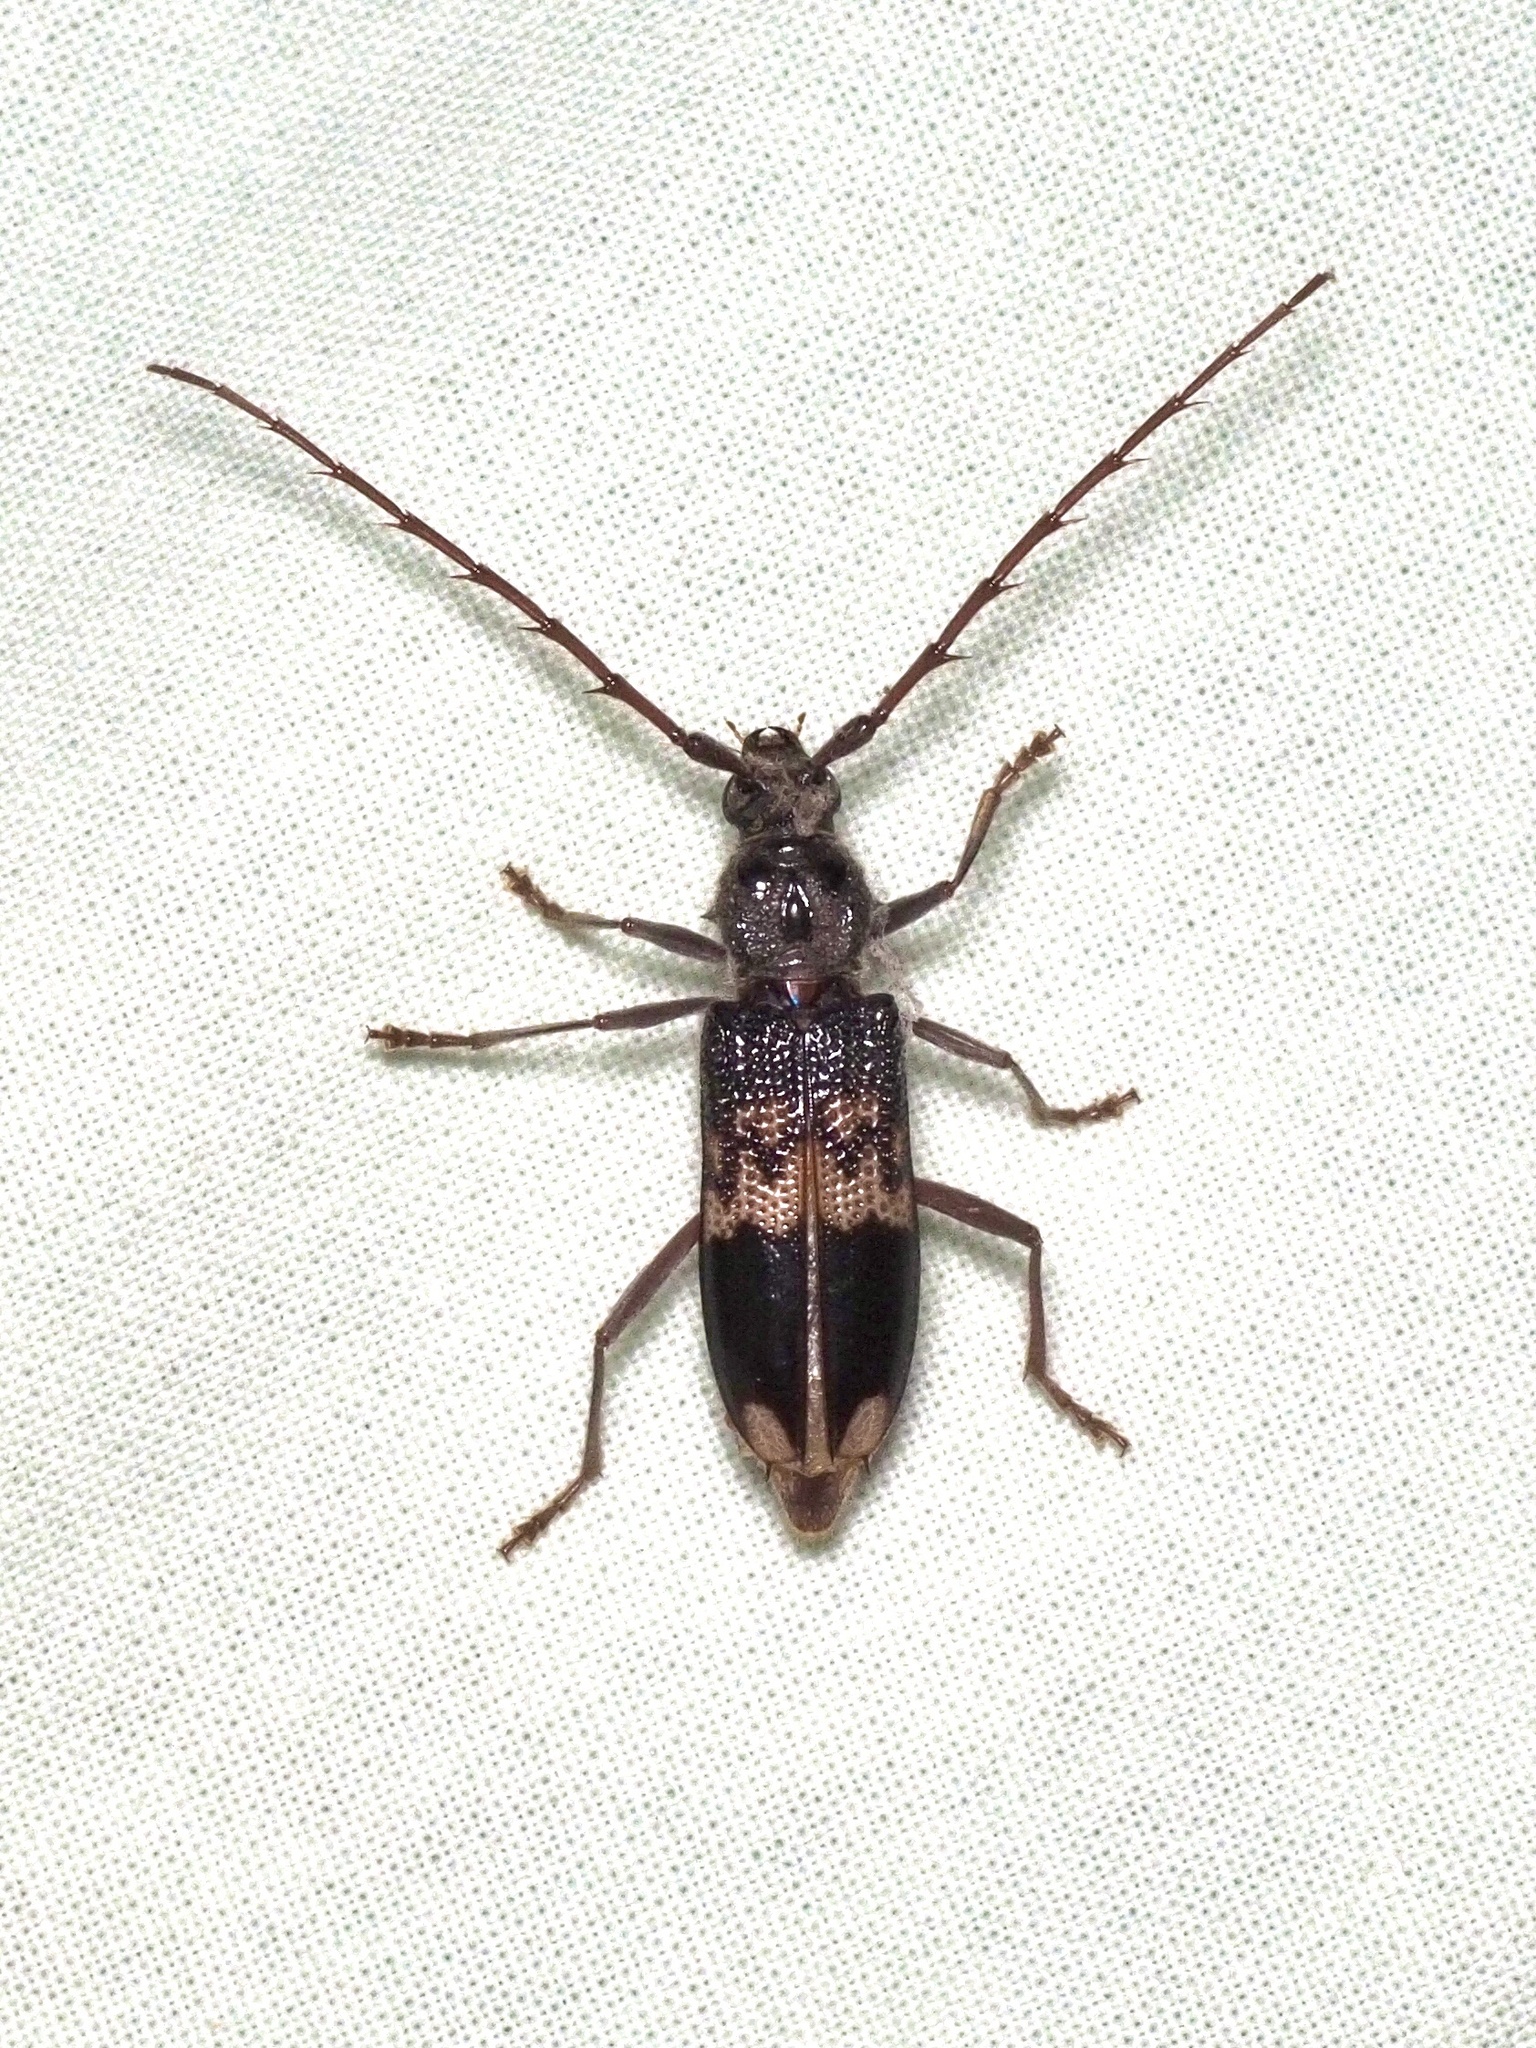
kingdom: Animalia
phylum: Arthropoda
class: Insecta
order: Coleoptera
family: Cerambycidae
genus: Phoracantha
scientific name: Phoracantha semipunctata
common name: Eucalyptus longhorn borer
